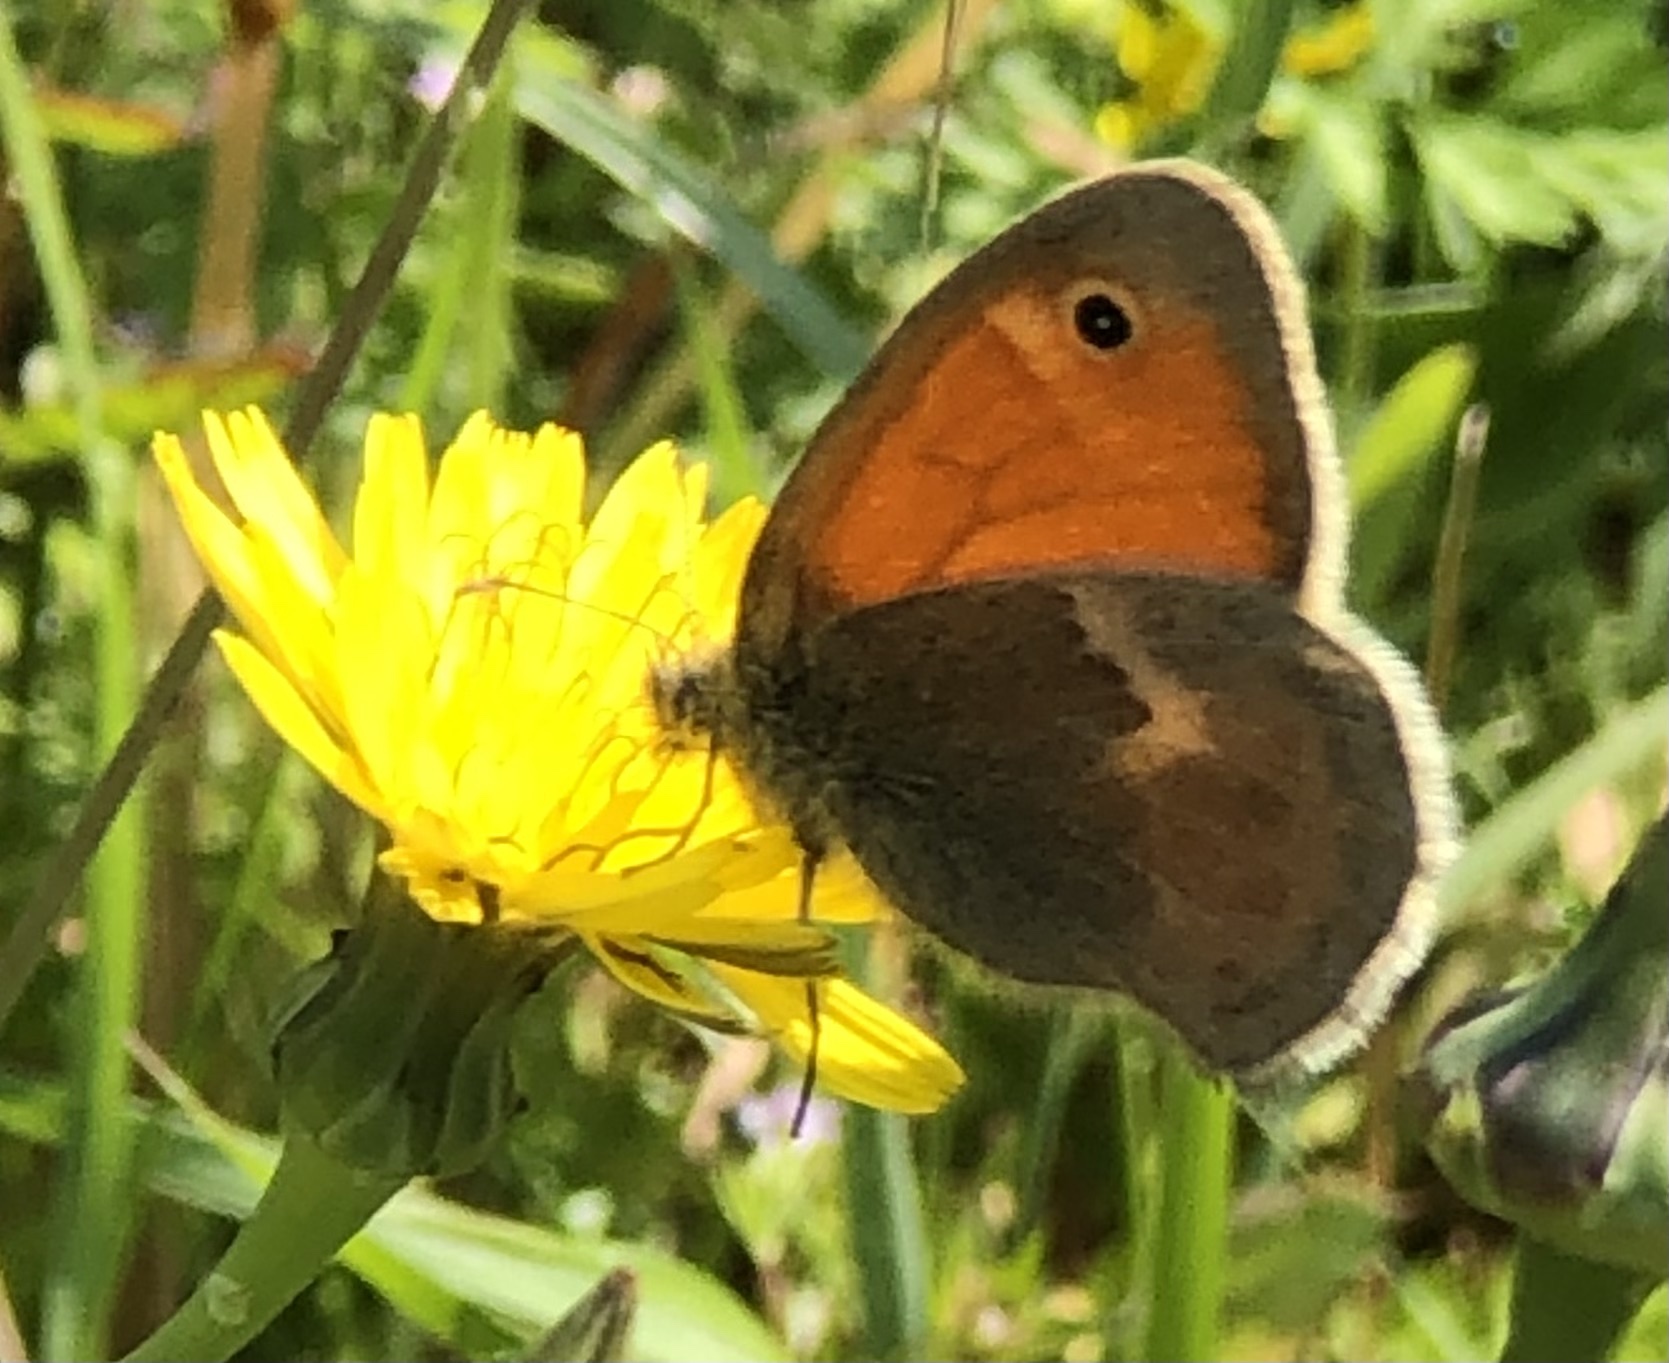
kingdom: Animalia
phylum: Arthropoda
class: Insecta
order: Lepidoptera
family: Nymphalidae
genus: Coenonympha
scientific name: Coenonympha pamphilus
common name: Small heath
